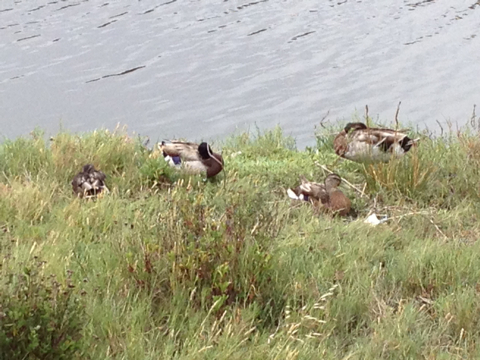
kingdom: Animalia
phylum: Chordata
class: Aves
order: Anseriformes
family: Anatidae
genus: Anas
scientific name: Anas platyrhynchos
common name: Mallard
